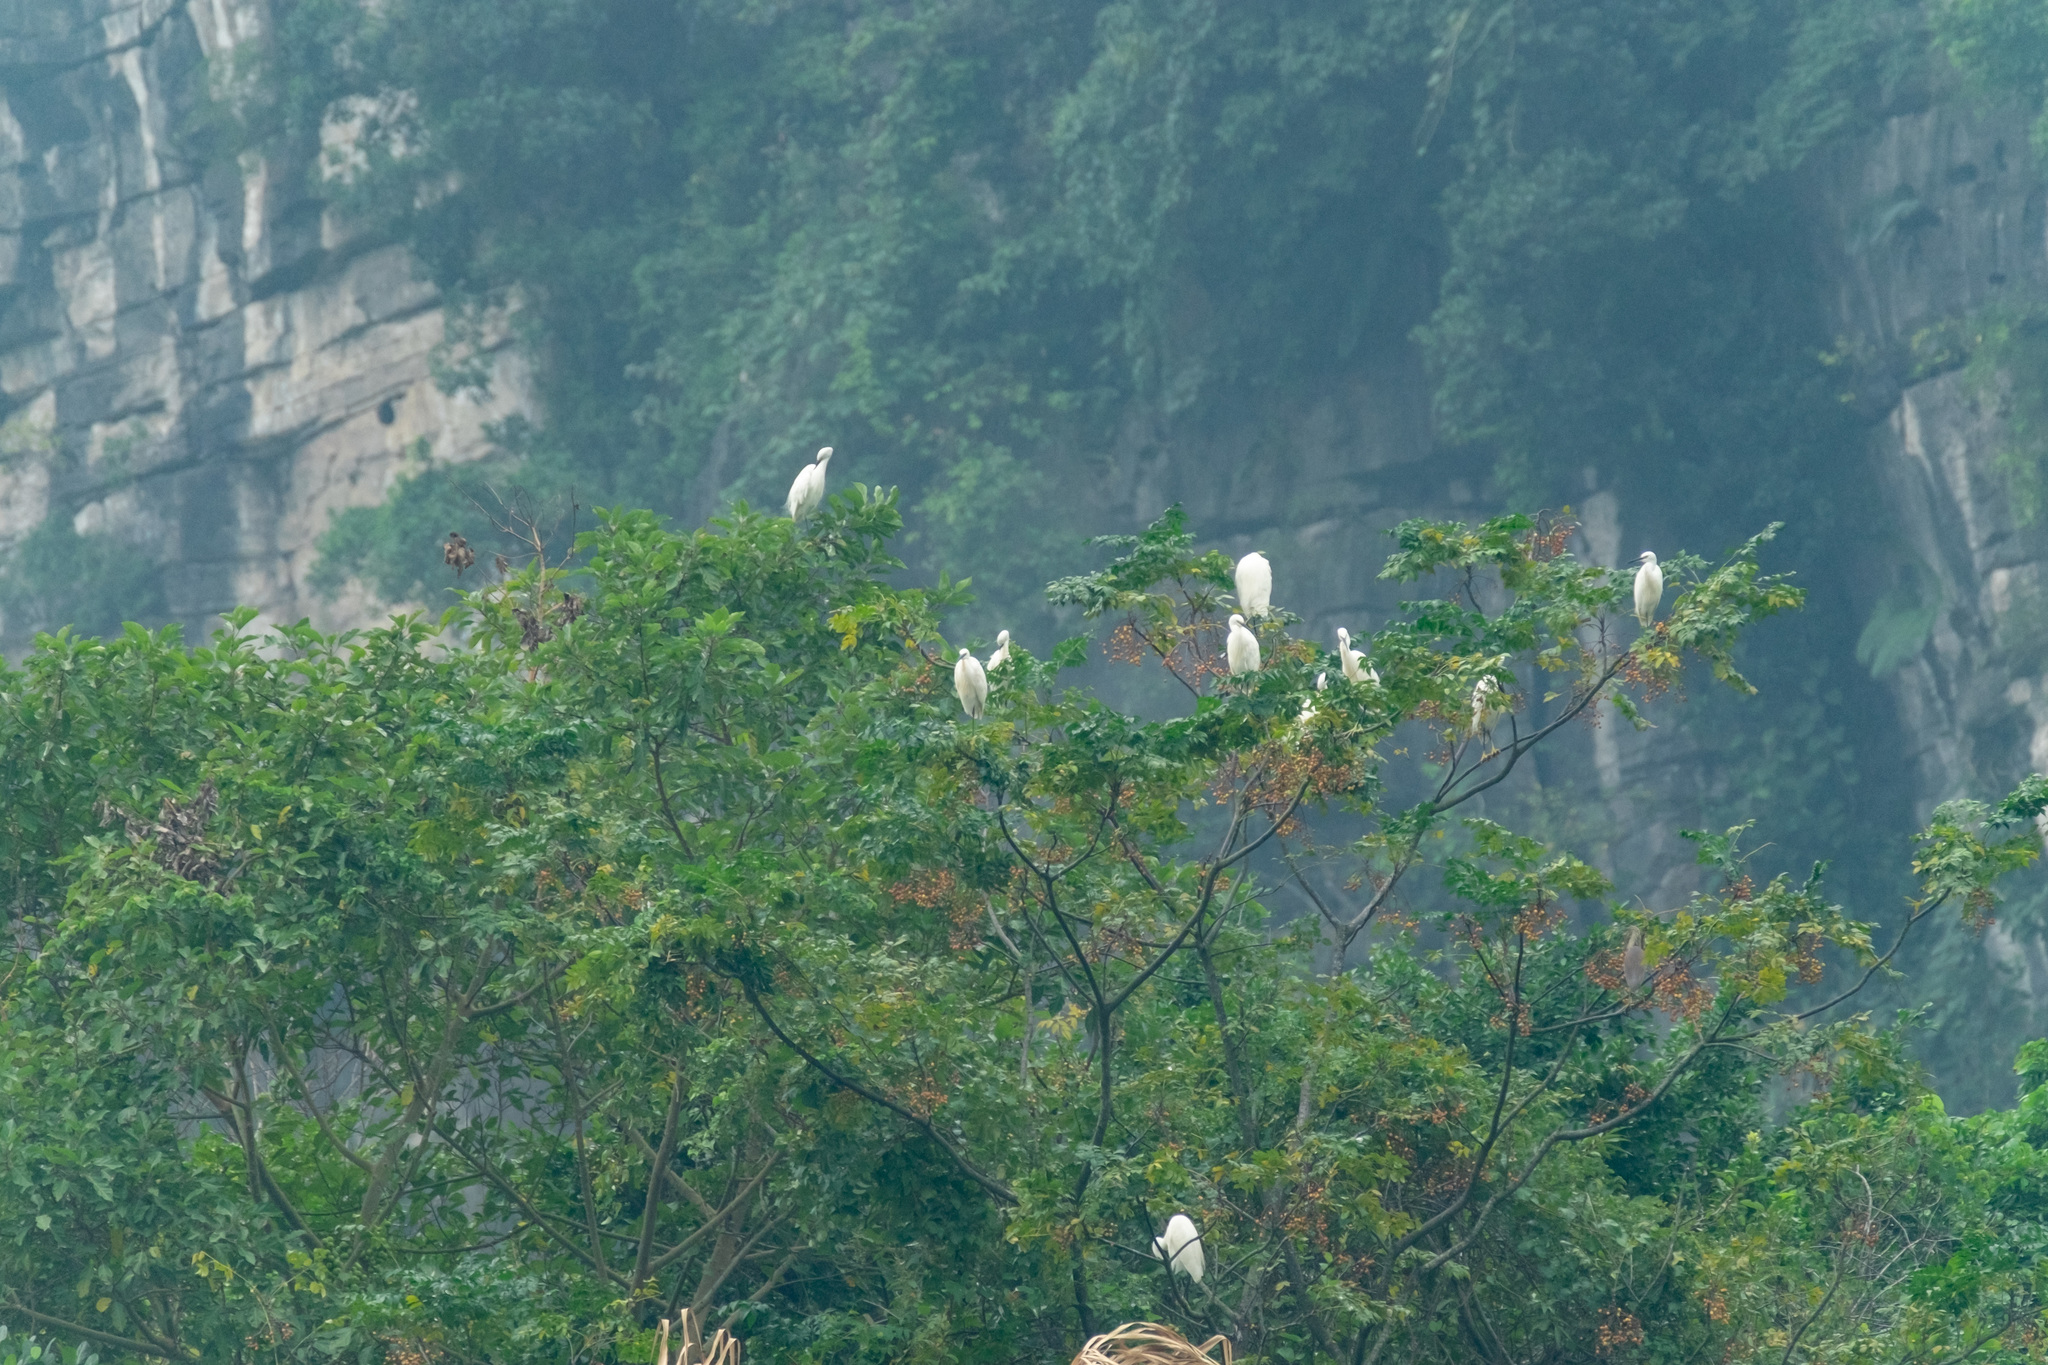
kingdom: Animalia
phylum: Chordata
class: Aves
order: Pelecaniformes
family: Ardeidae
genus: Egretta
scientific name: Egretta garzetta
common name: Little egret
